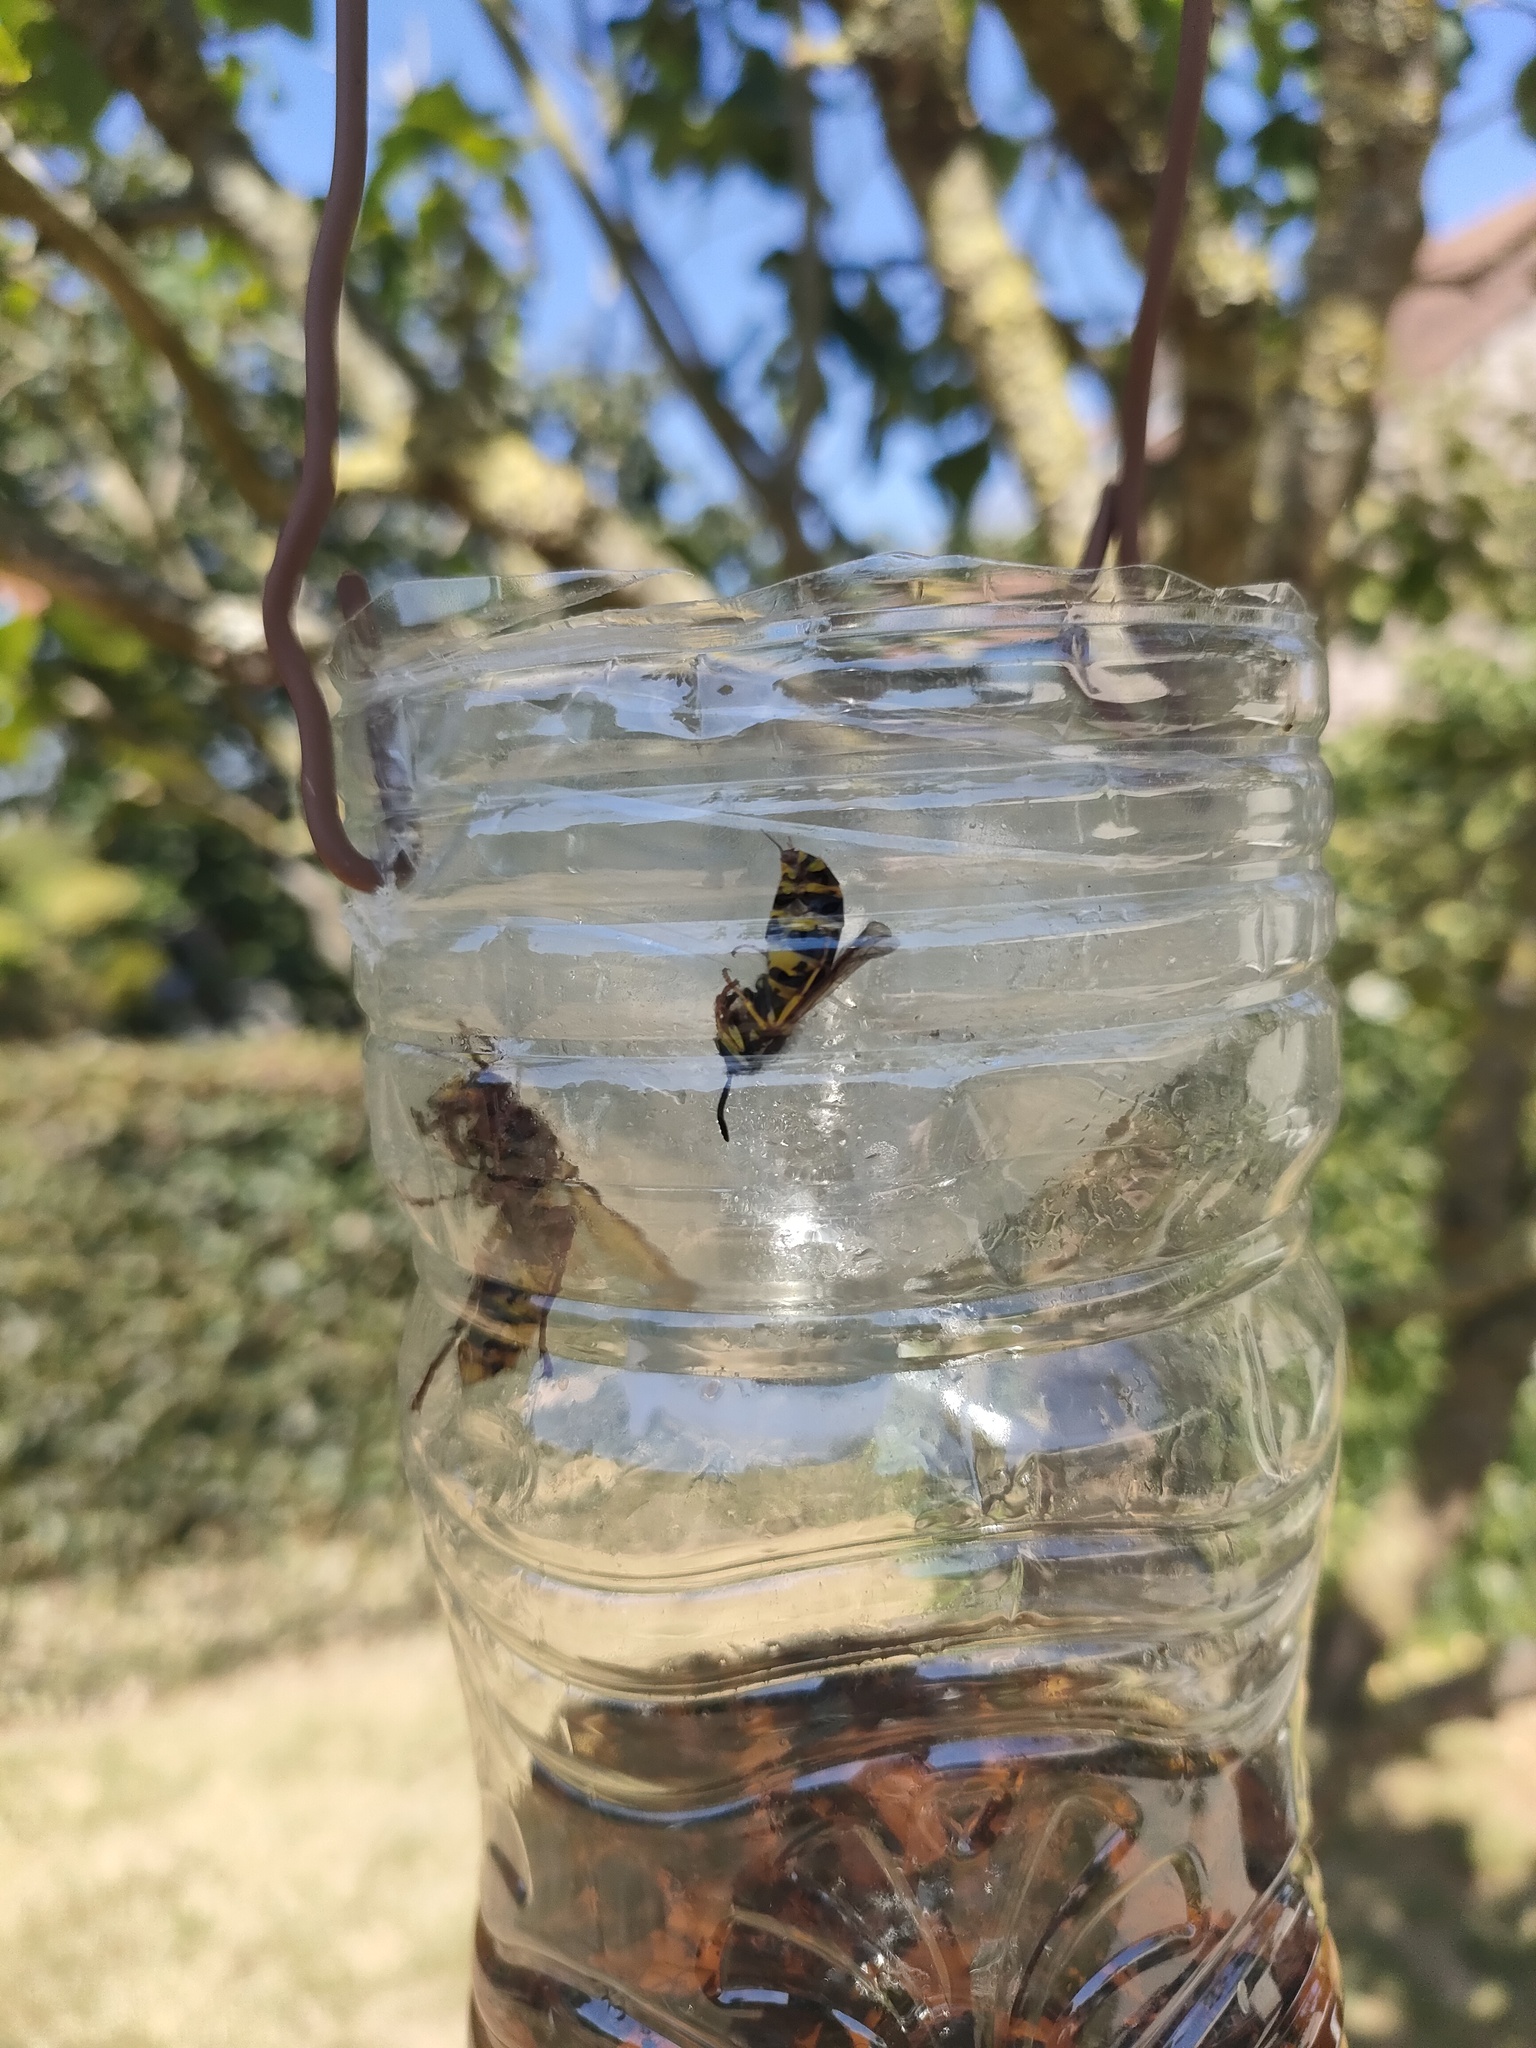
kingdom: Animalia
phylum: Arthropoda
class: Insecta
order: Hymenoptera
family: Vespidae
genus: Vespa
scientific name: Vespa crabro
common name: Hornet
